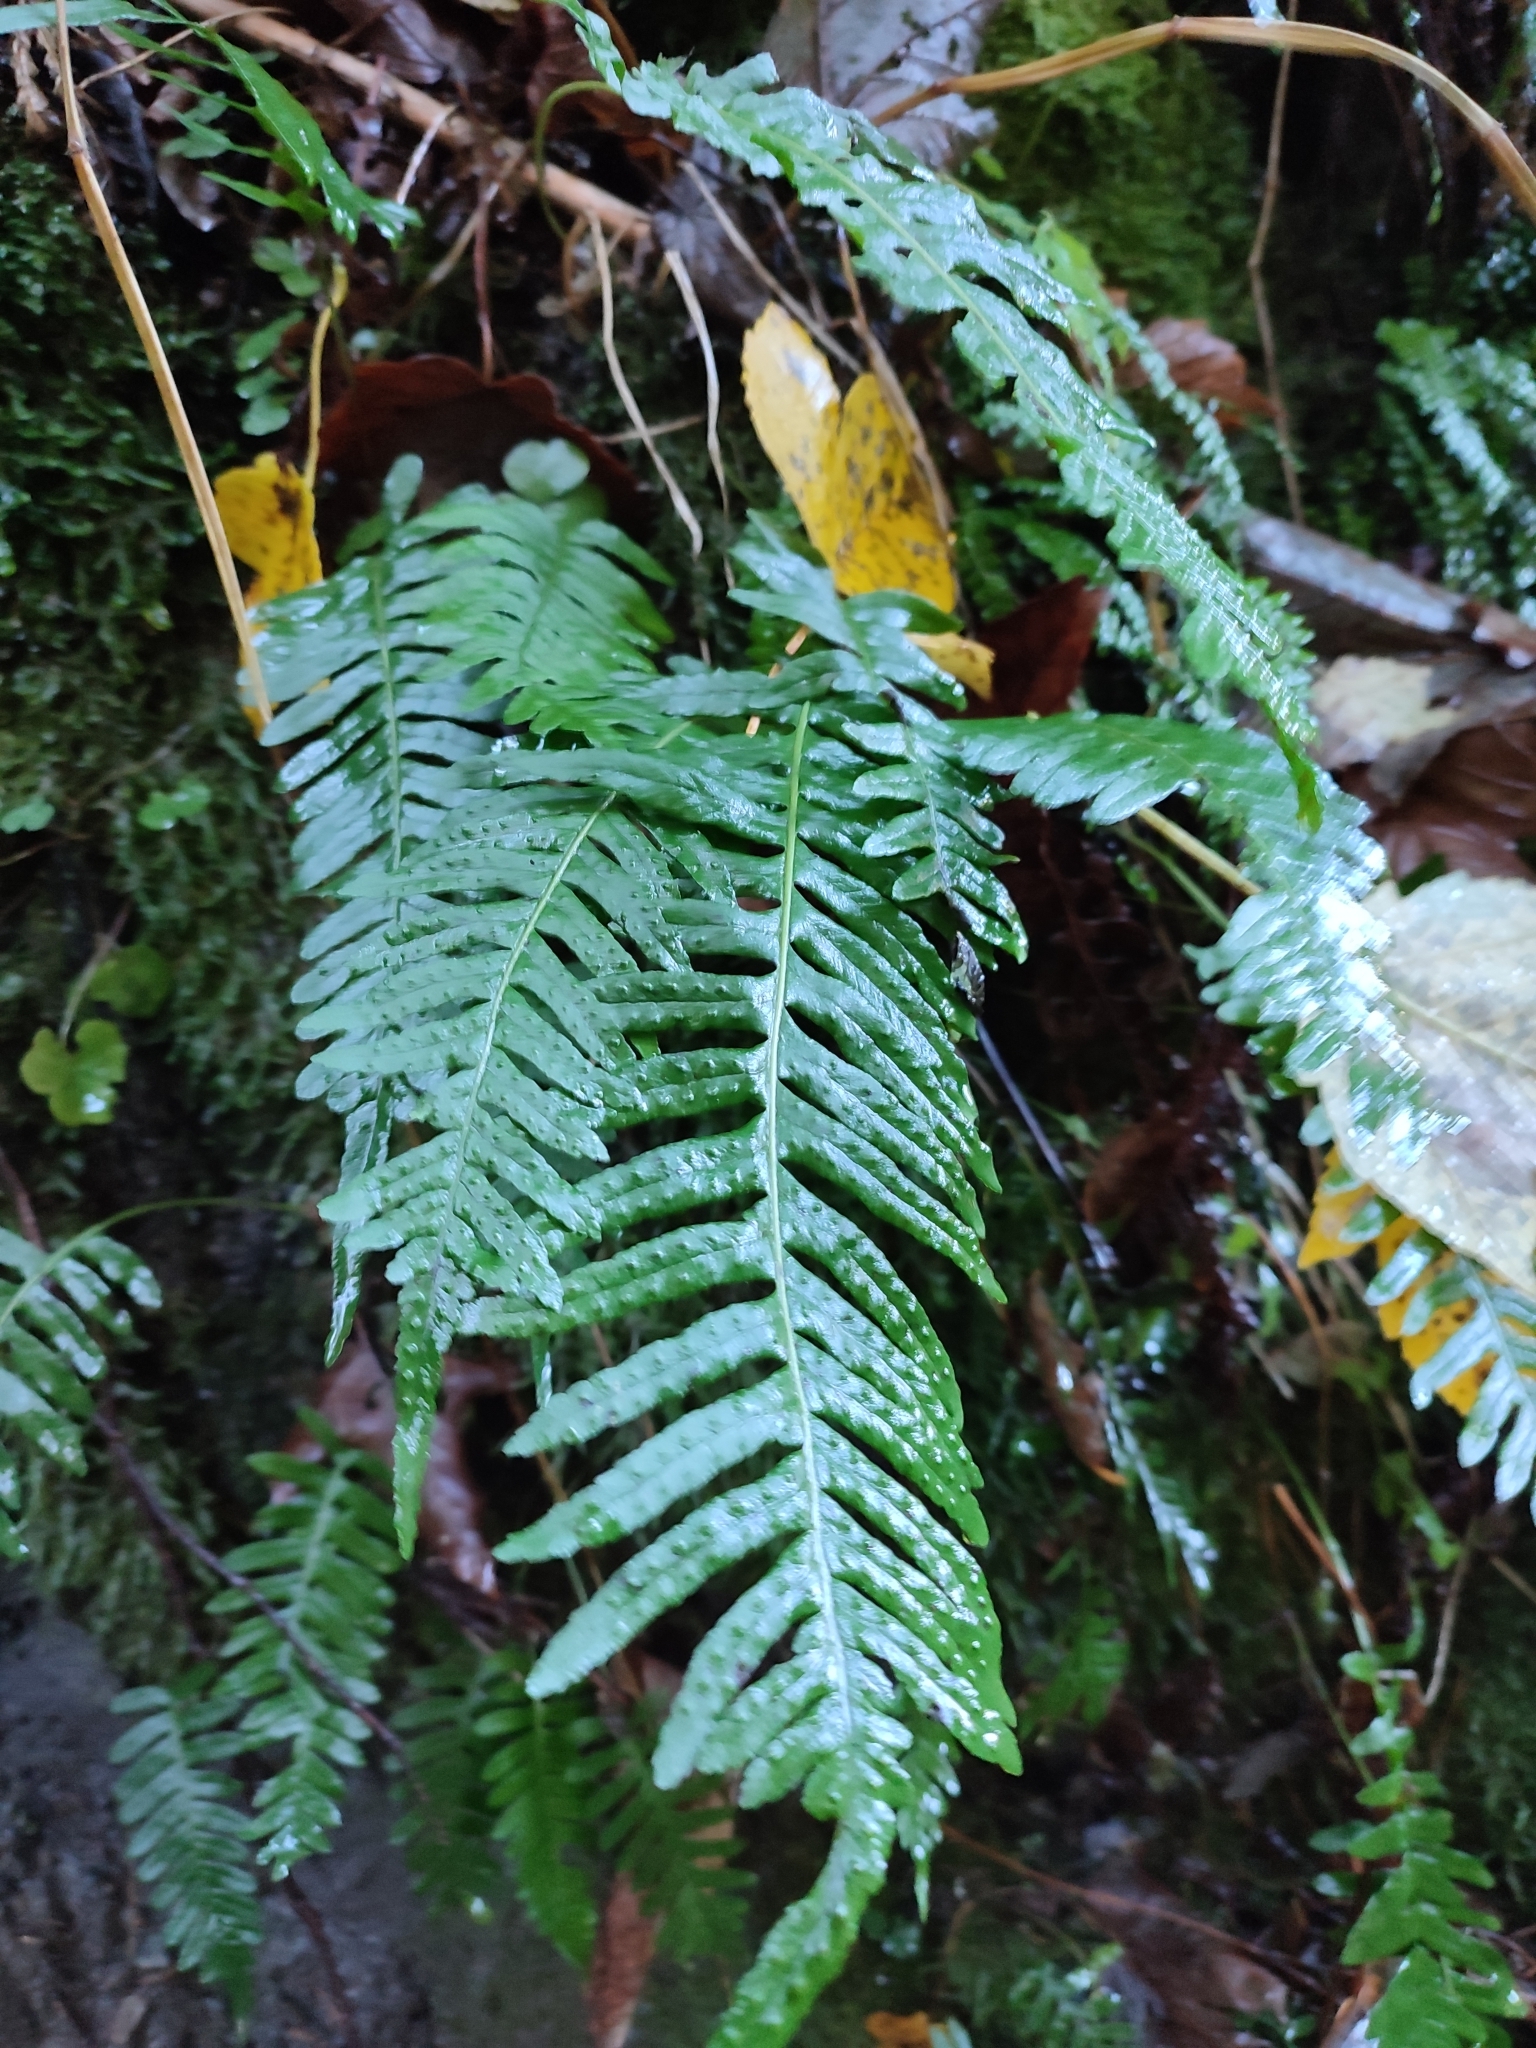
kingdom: Plantae
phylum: Tracheophyta
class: Polypodiopsida
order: Polypodiales
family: Polypodiaceae
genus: Polypodium
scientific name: Polypodium vulgare
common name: Common polypody
